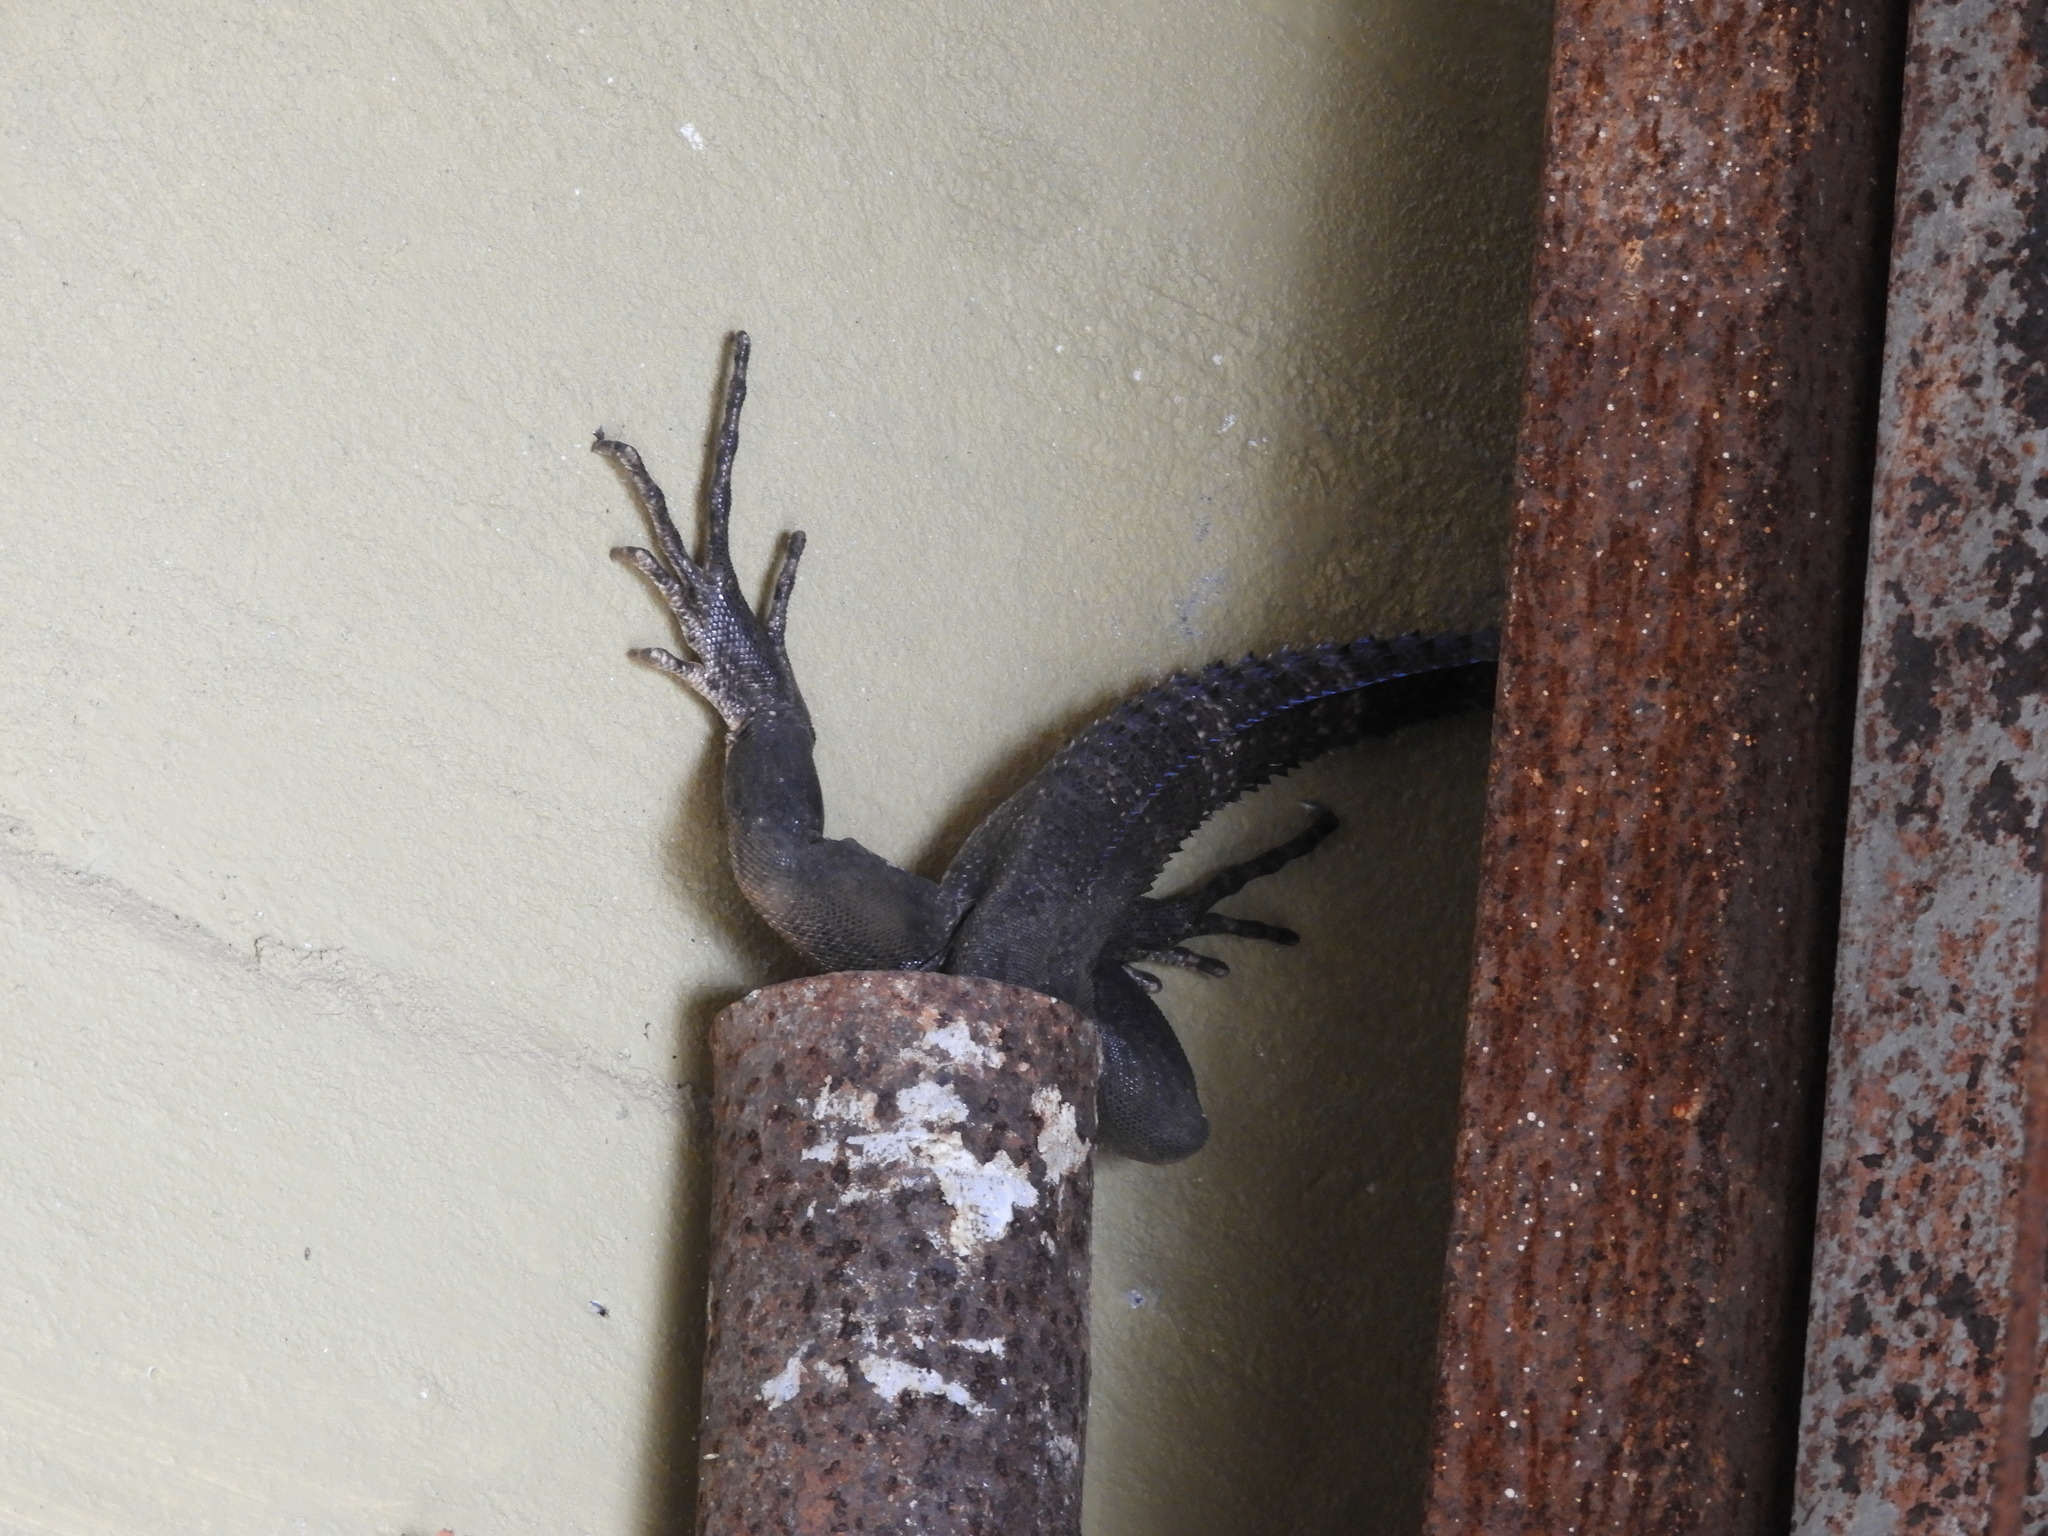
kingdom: Animalia
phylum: Chordata
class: Squamata
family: Iguanidae
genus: Ctenosaura
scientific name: Ctenosaura pectinata
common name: Guerreran spiny-tailed iguana
